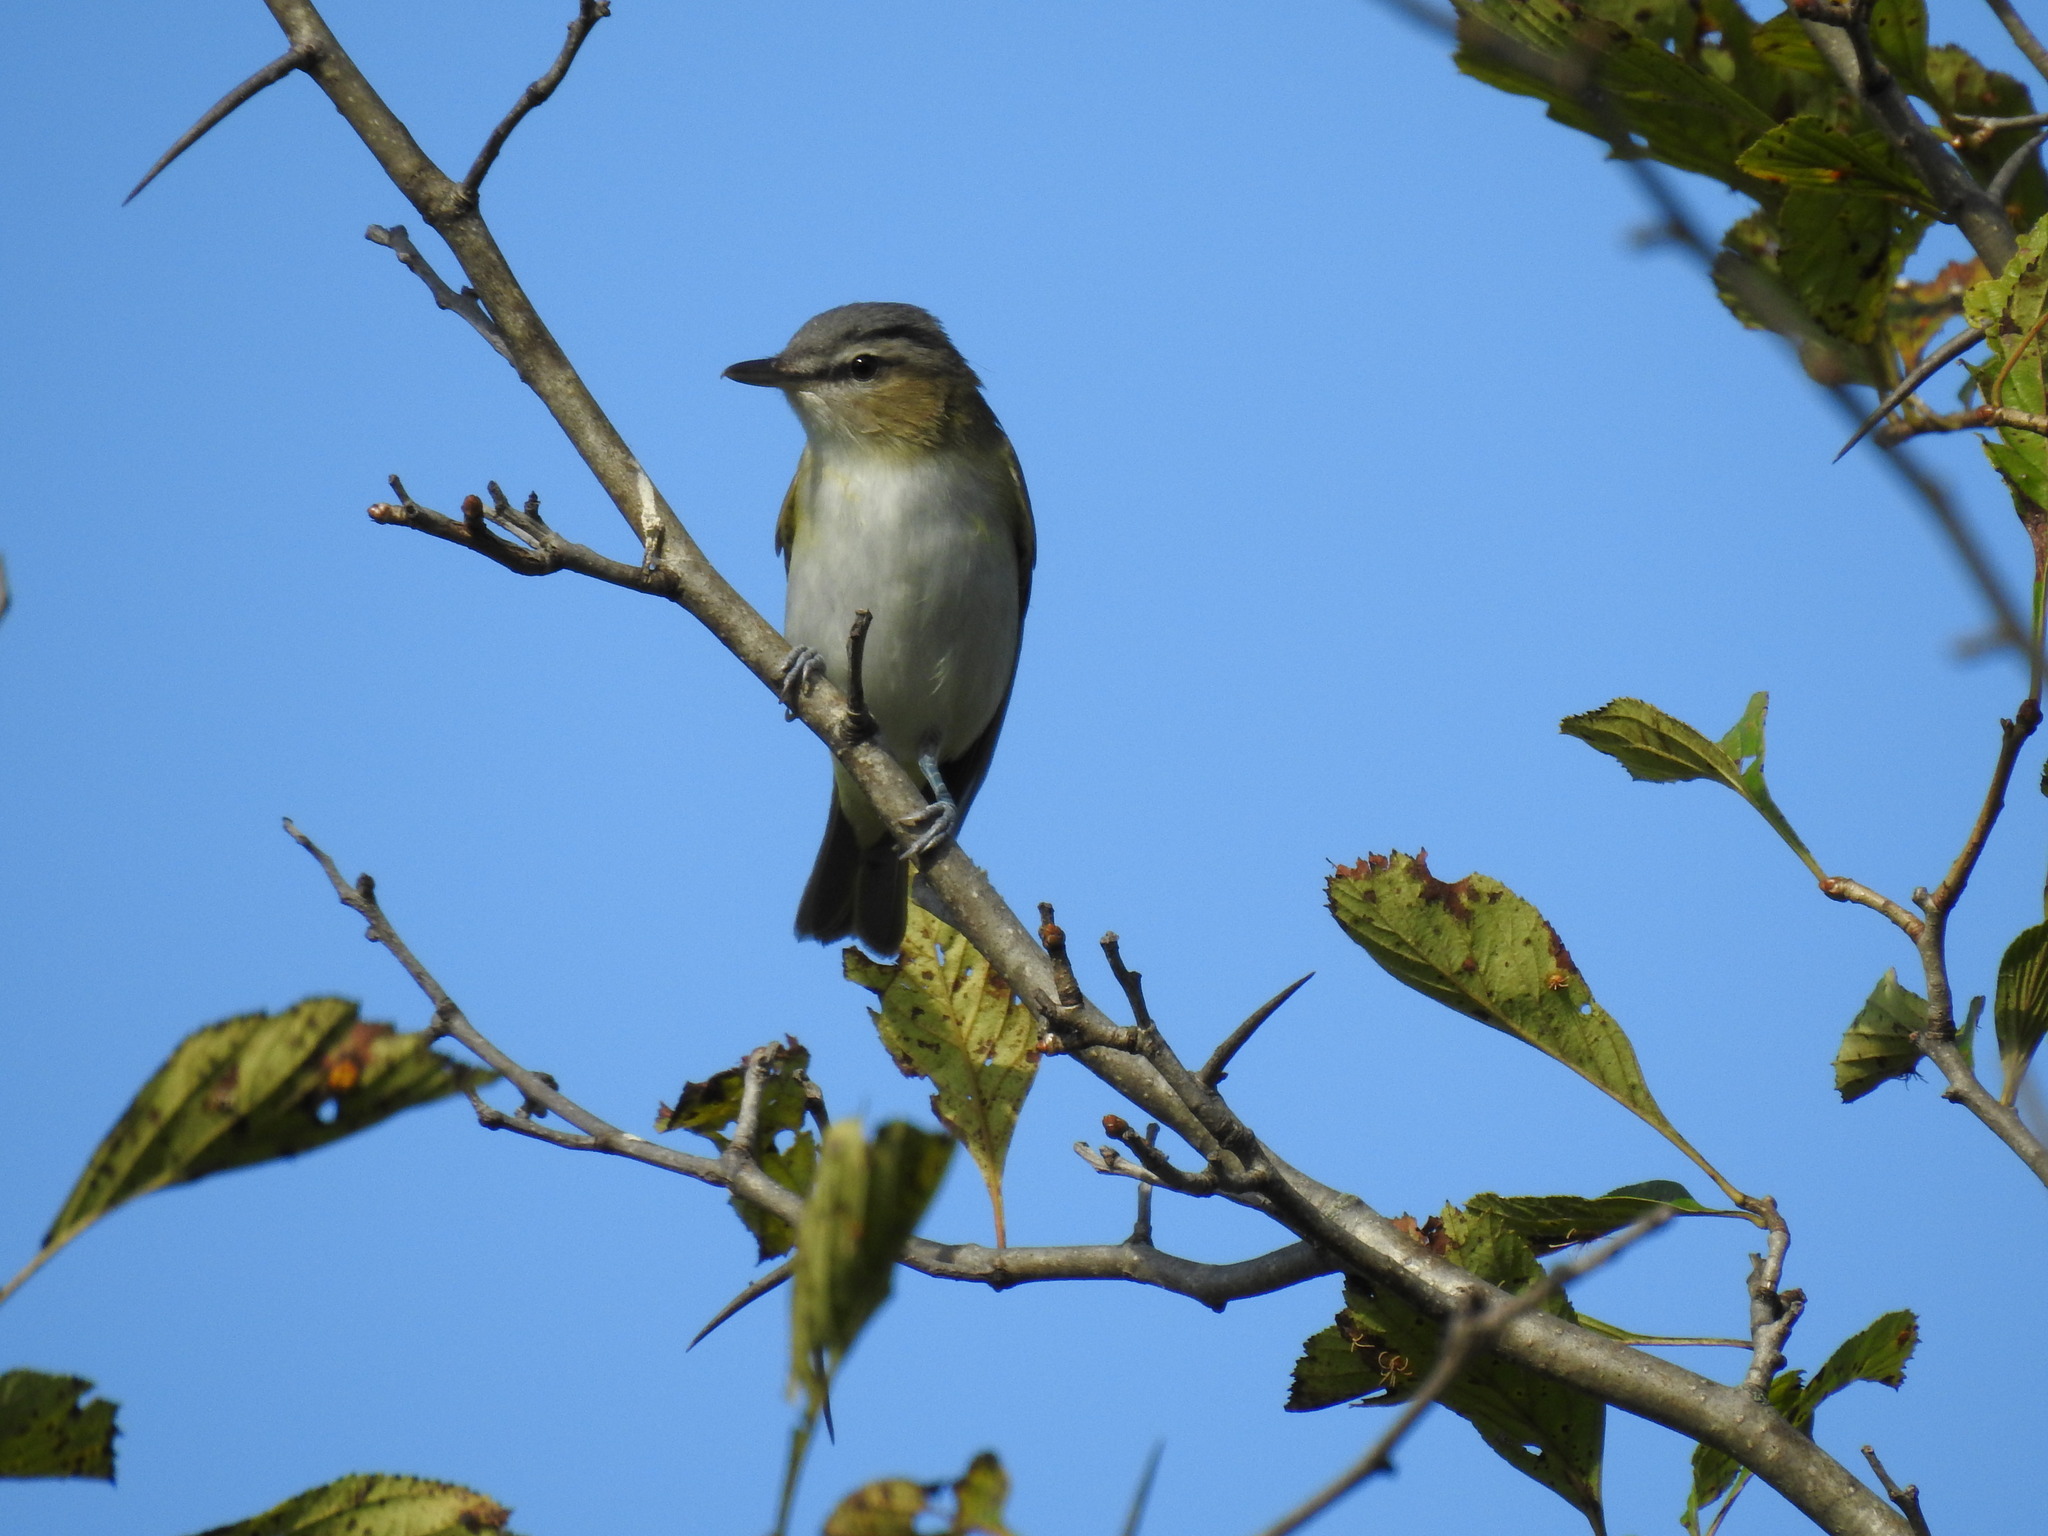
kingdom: Animalia
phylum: Chordata
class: Aves
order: Passeriformes
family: Vireonidae
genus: Vireo
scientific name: Vireo olivaceus
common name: Red-eyed vireo
